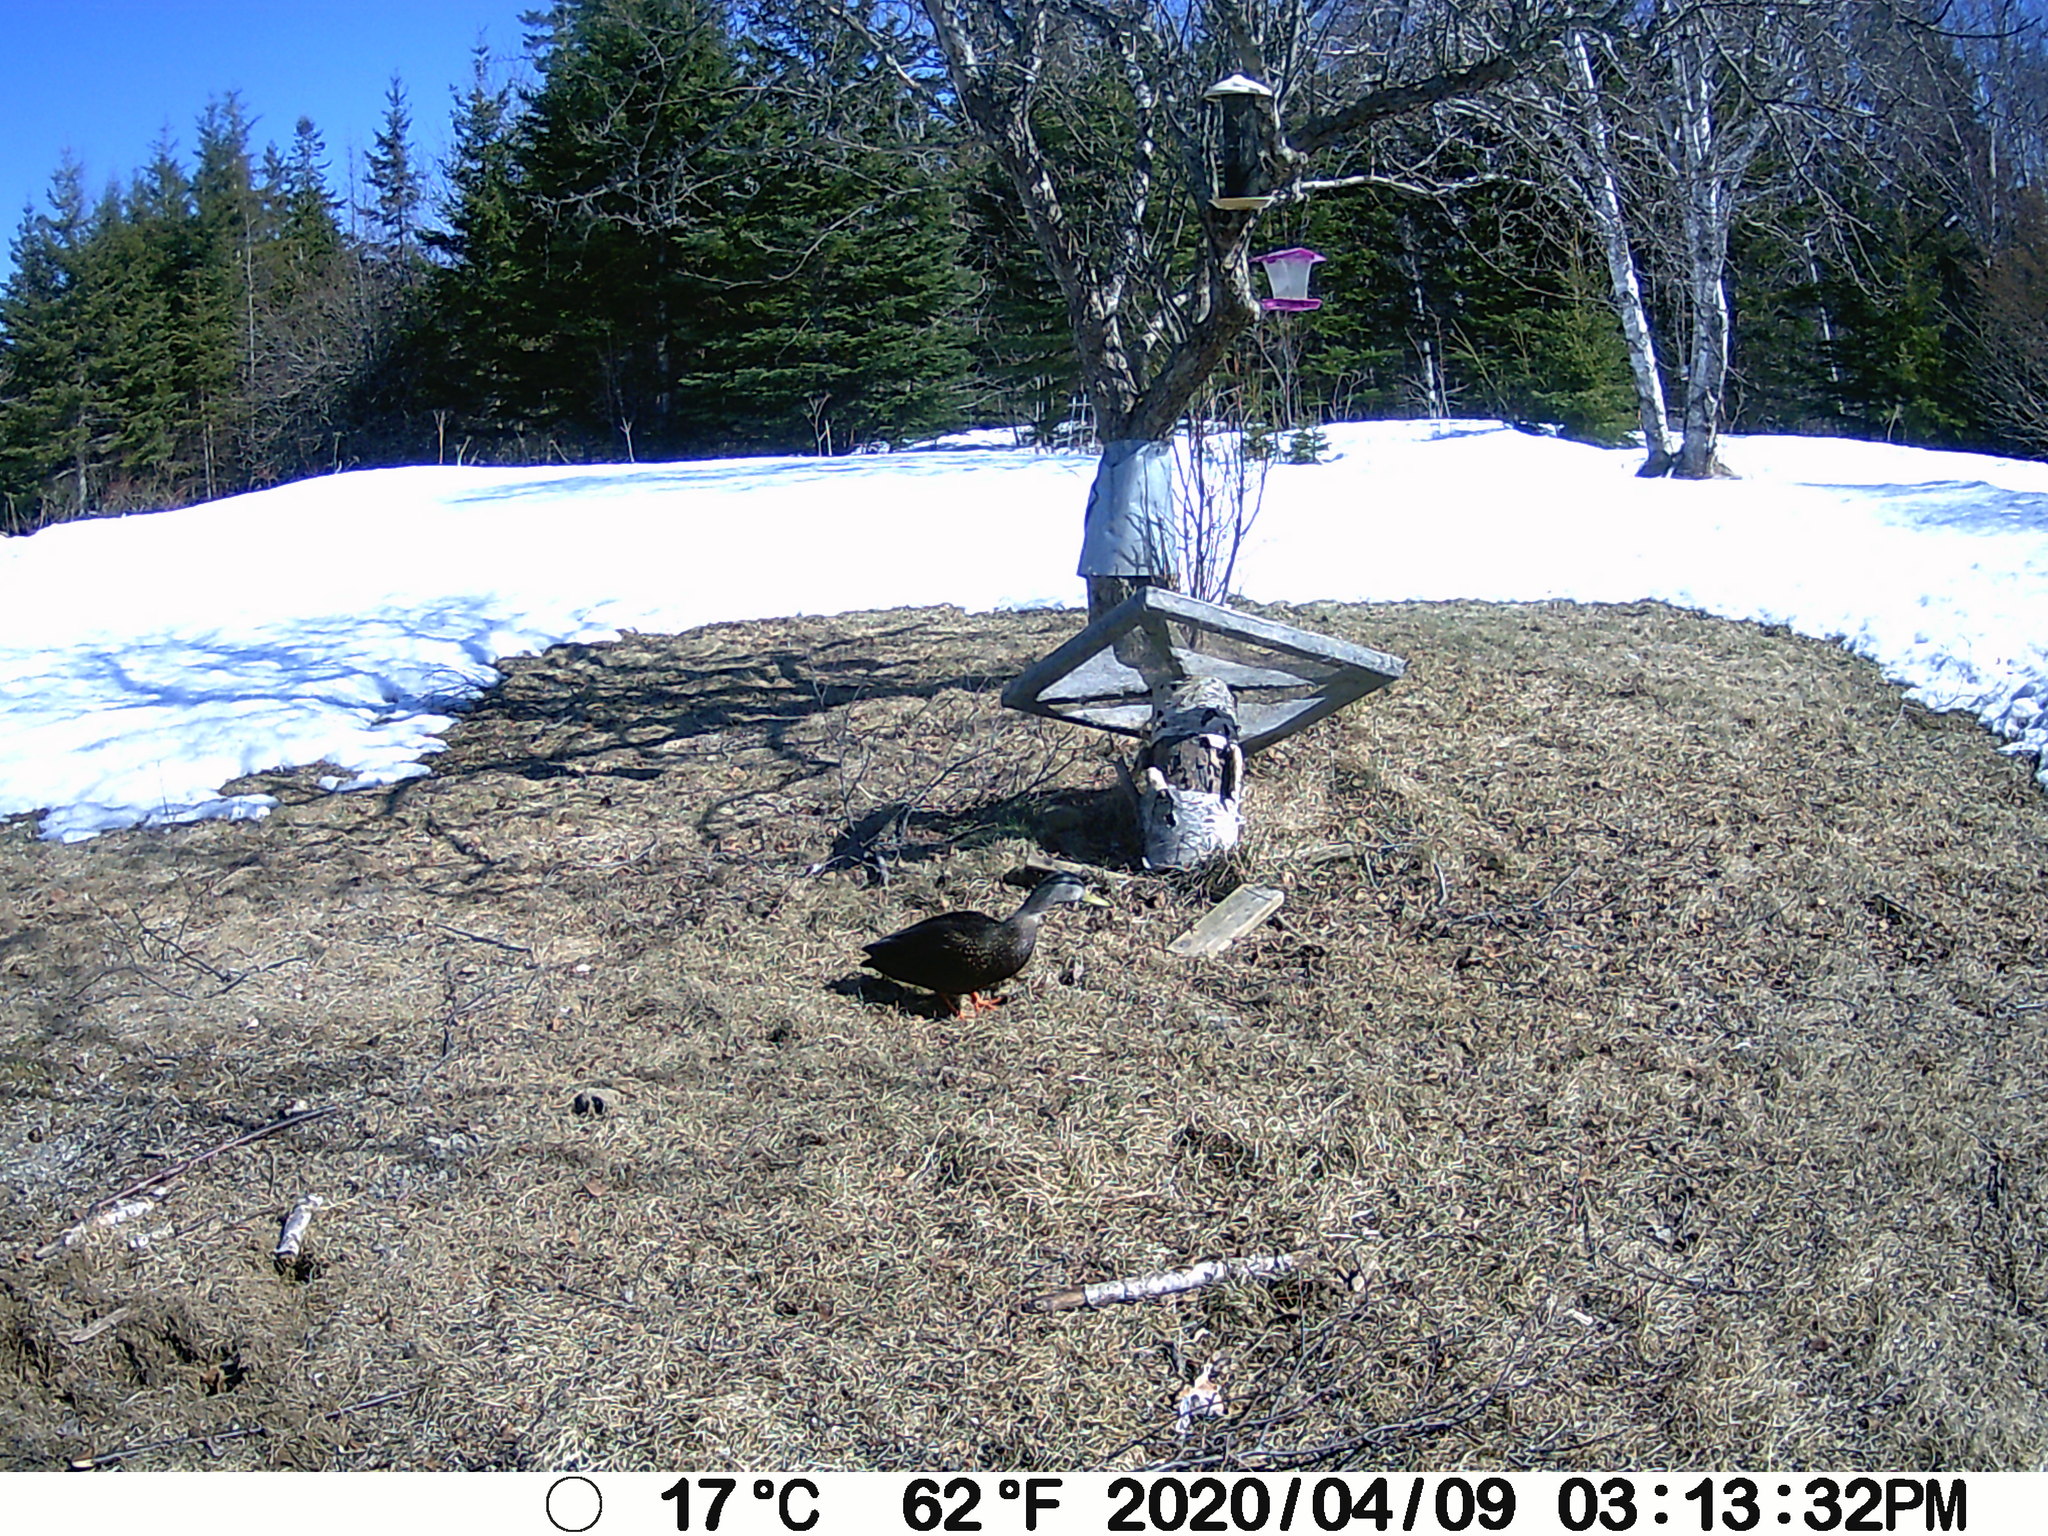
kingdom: Animalia
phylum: Chordata
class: Aves
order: Anseriformes
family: Anatidae
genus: Anas
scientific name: Anas rubripes
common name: American black duck
